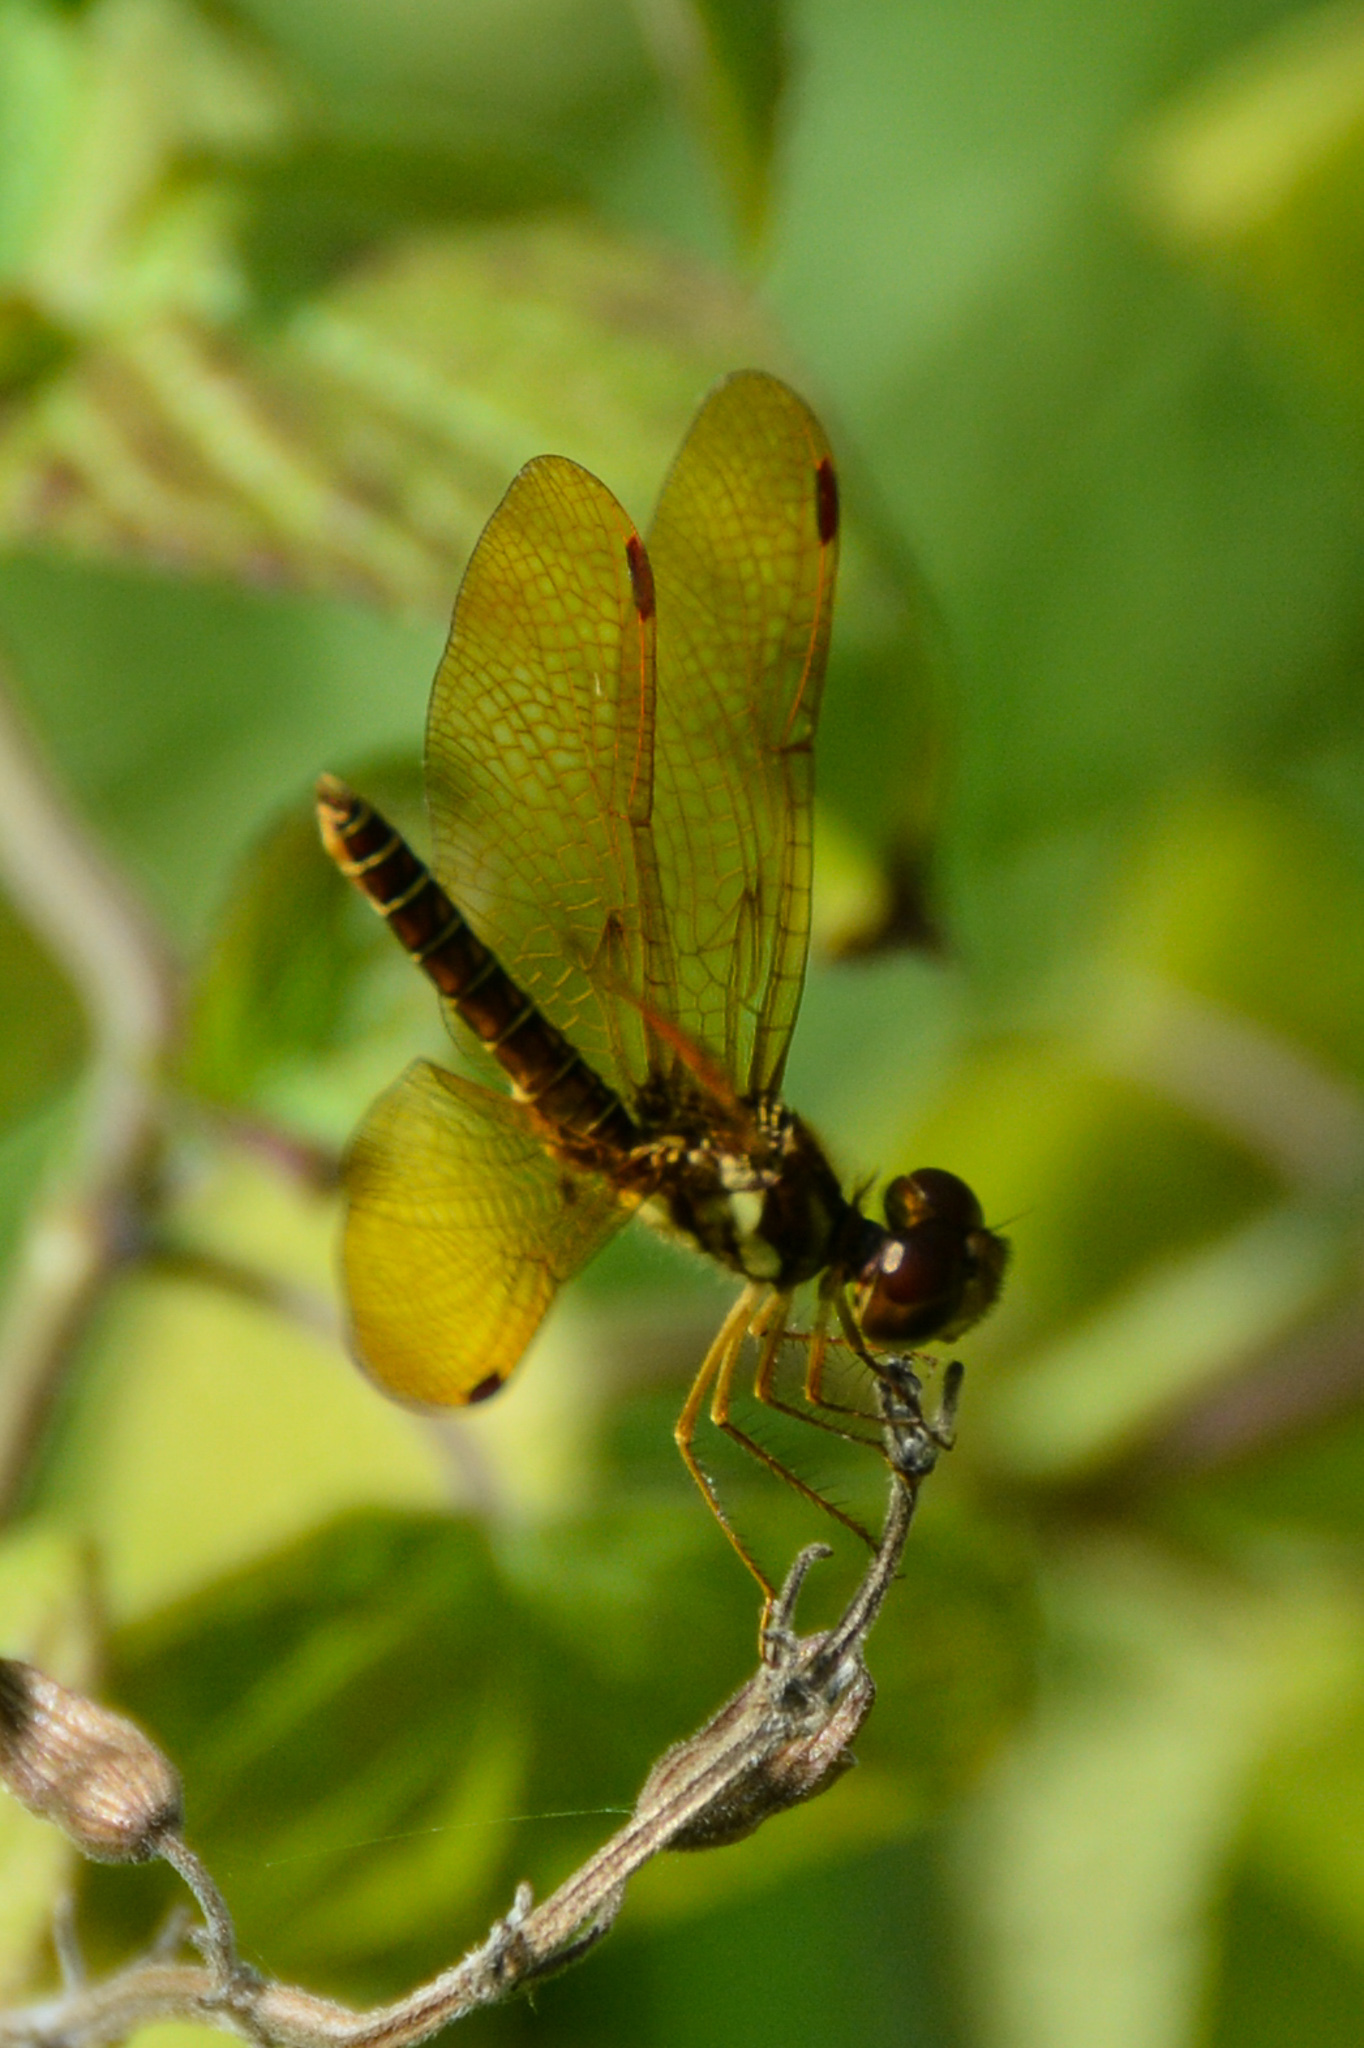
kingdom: Animalia
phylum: Arthropoda
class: Insecta
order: Odonata
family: Libellulidae
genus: Perithemis
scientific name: Perithemis tenera
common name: Eastern amberwing
